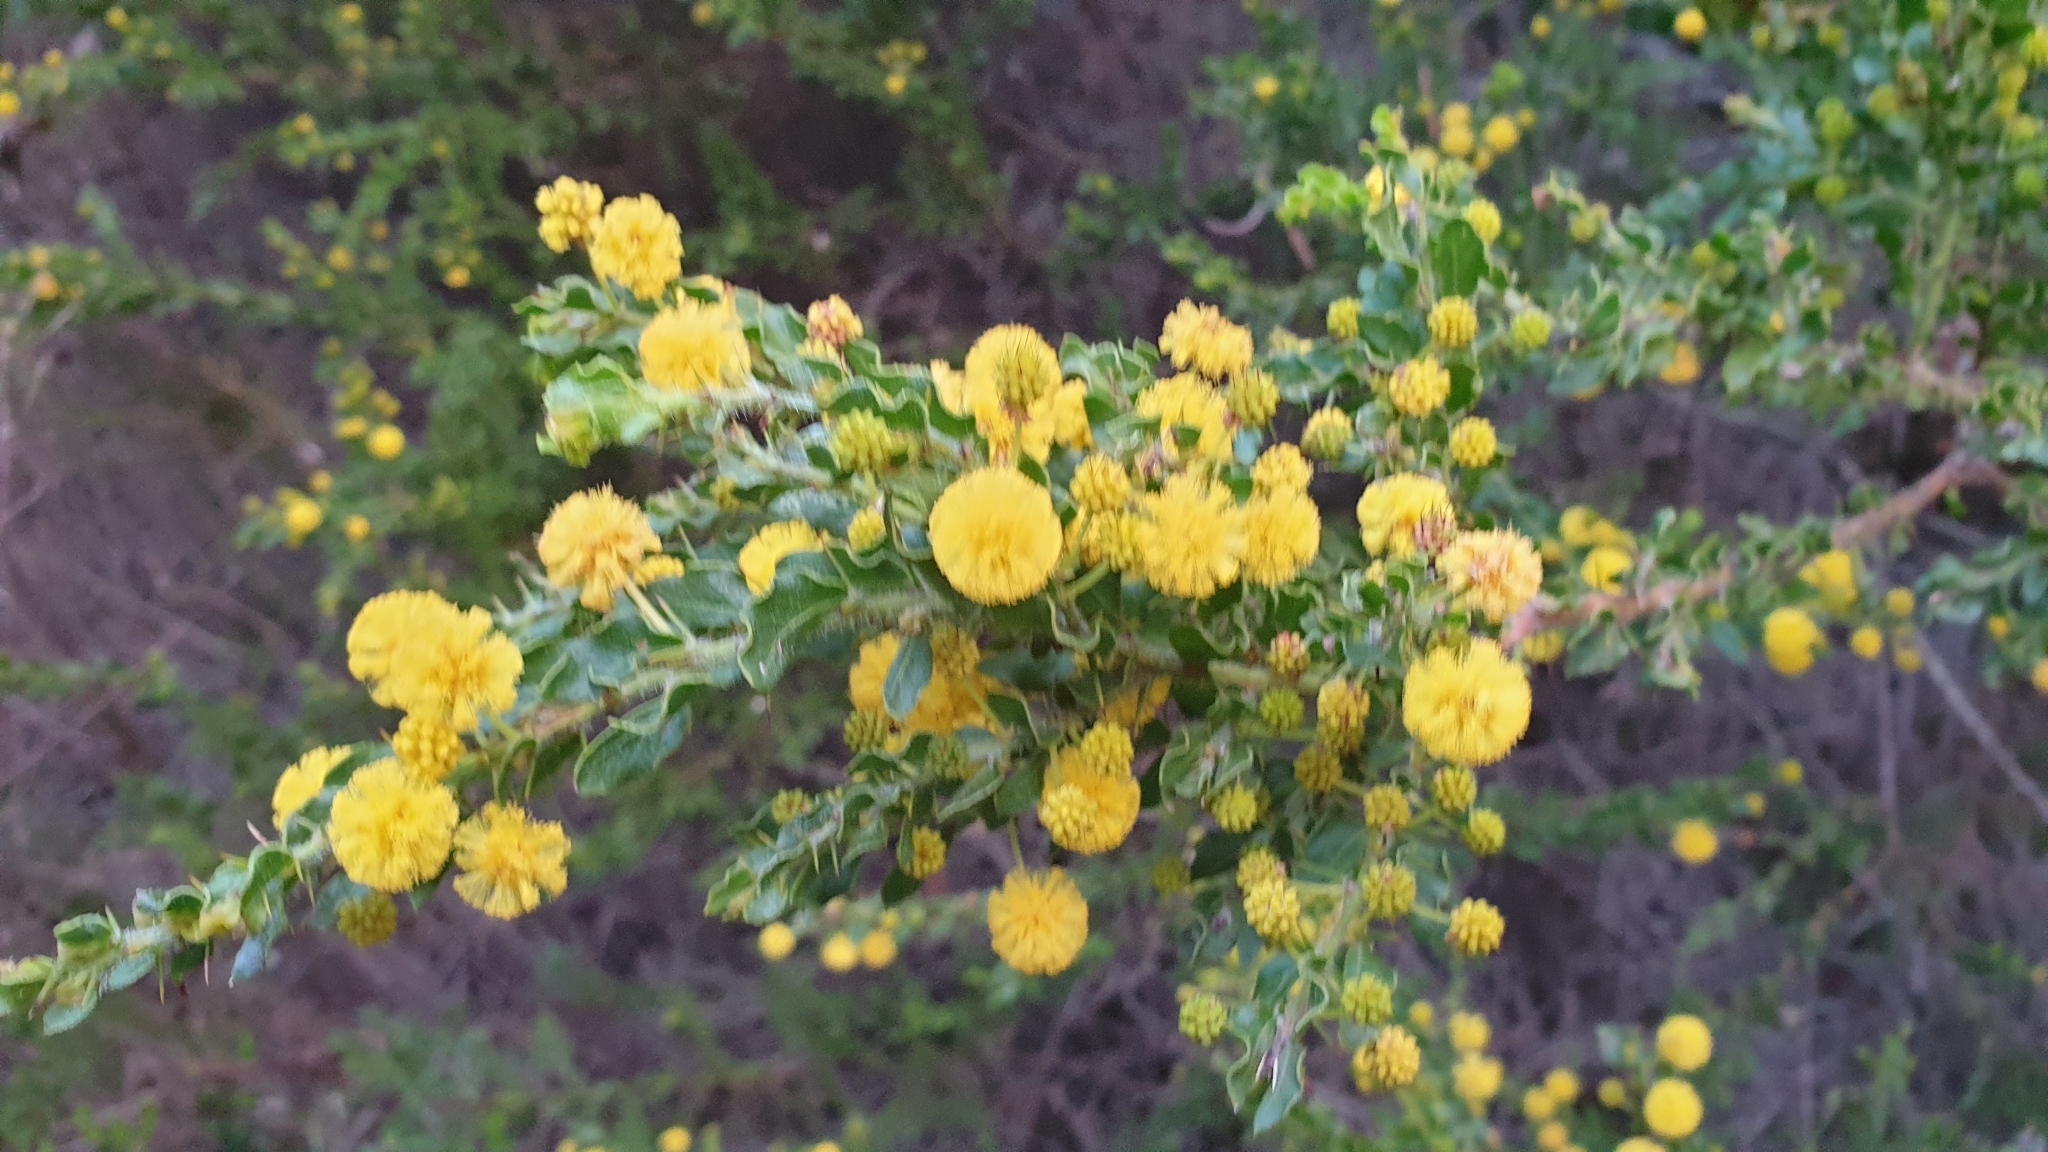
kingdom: Plantae
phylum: Tracheophyta
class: Magnoliopsida
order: Fabales
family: Fabaceae
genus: Acacia
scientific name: Acacia paradoxa
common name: Paradox acacia
